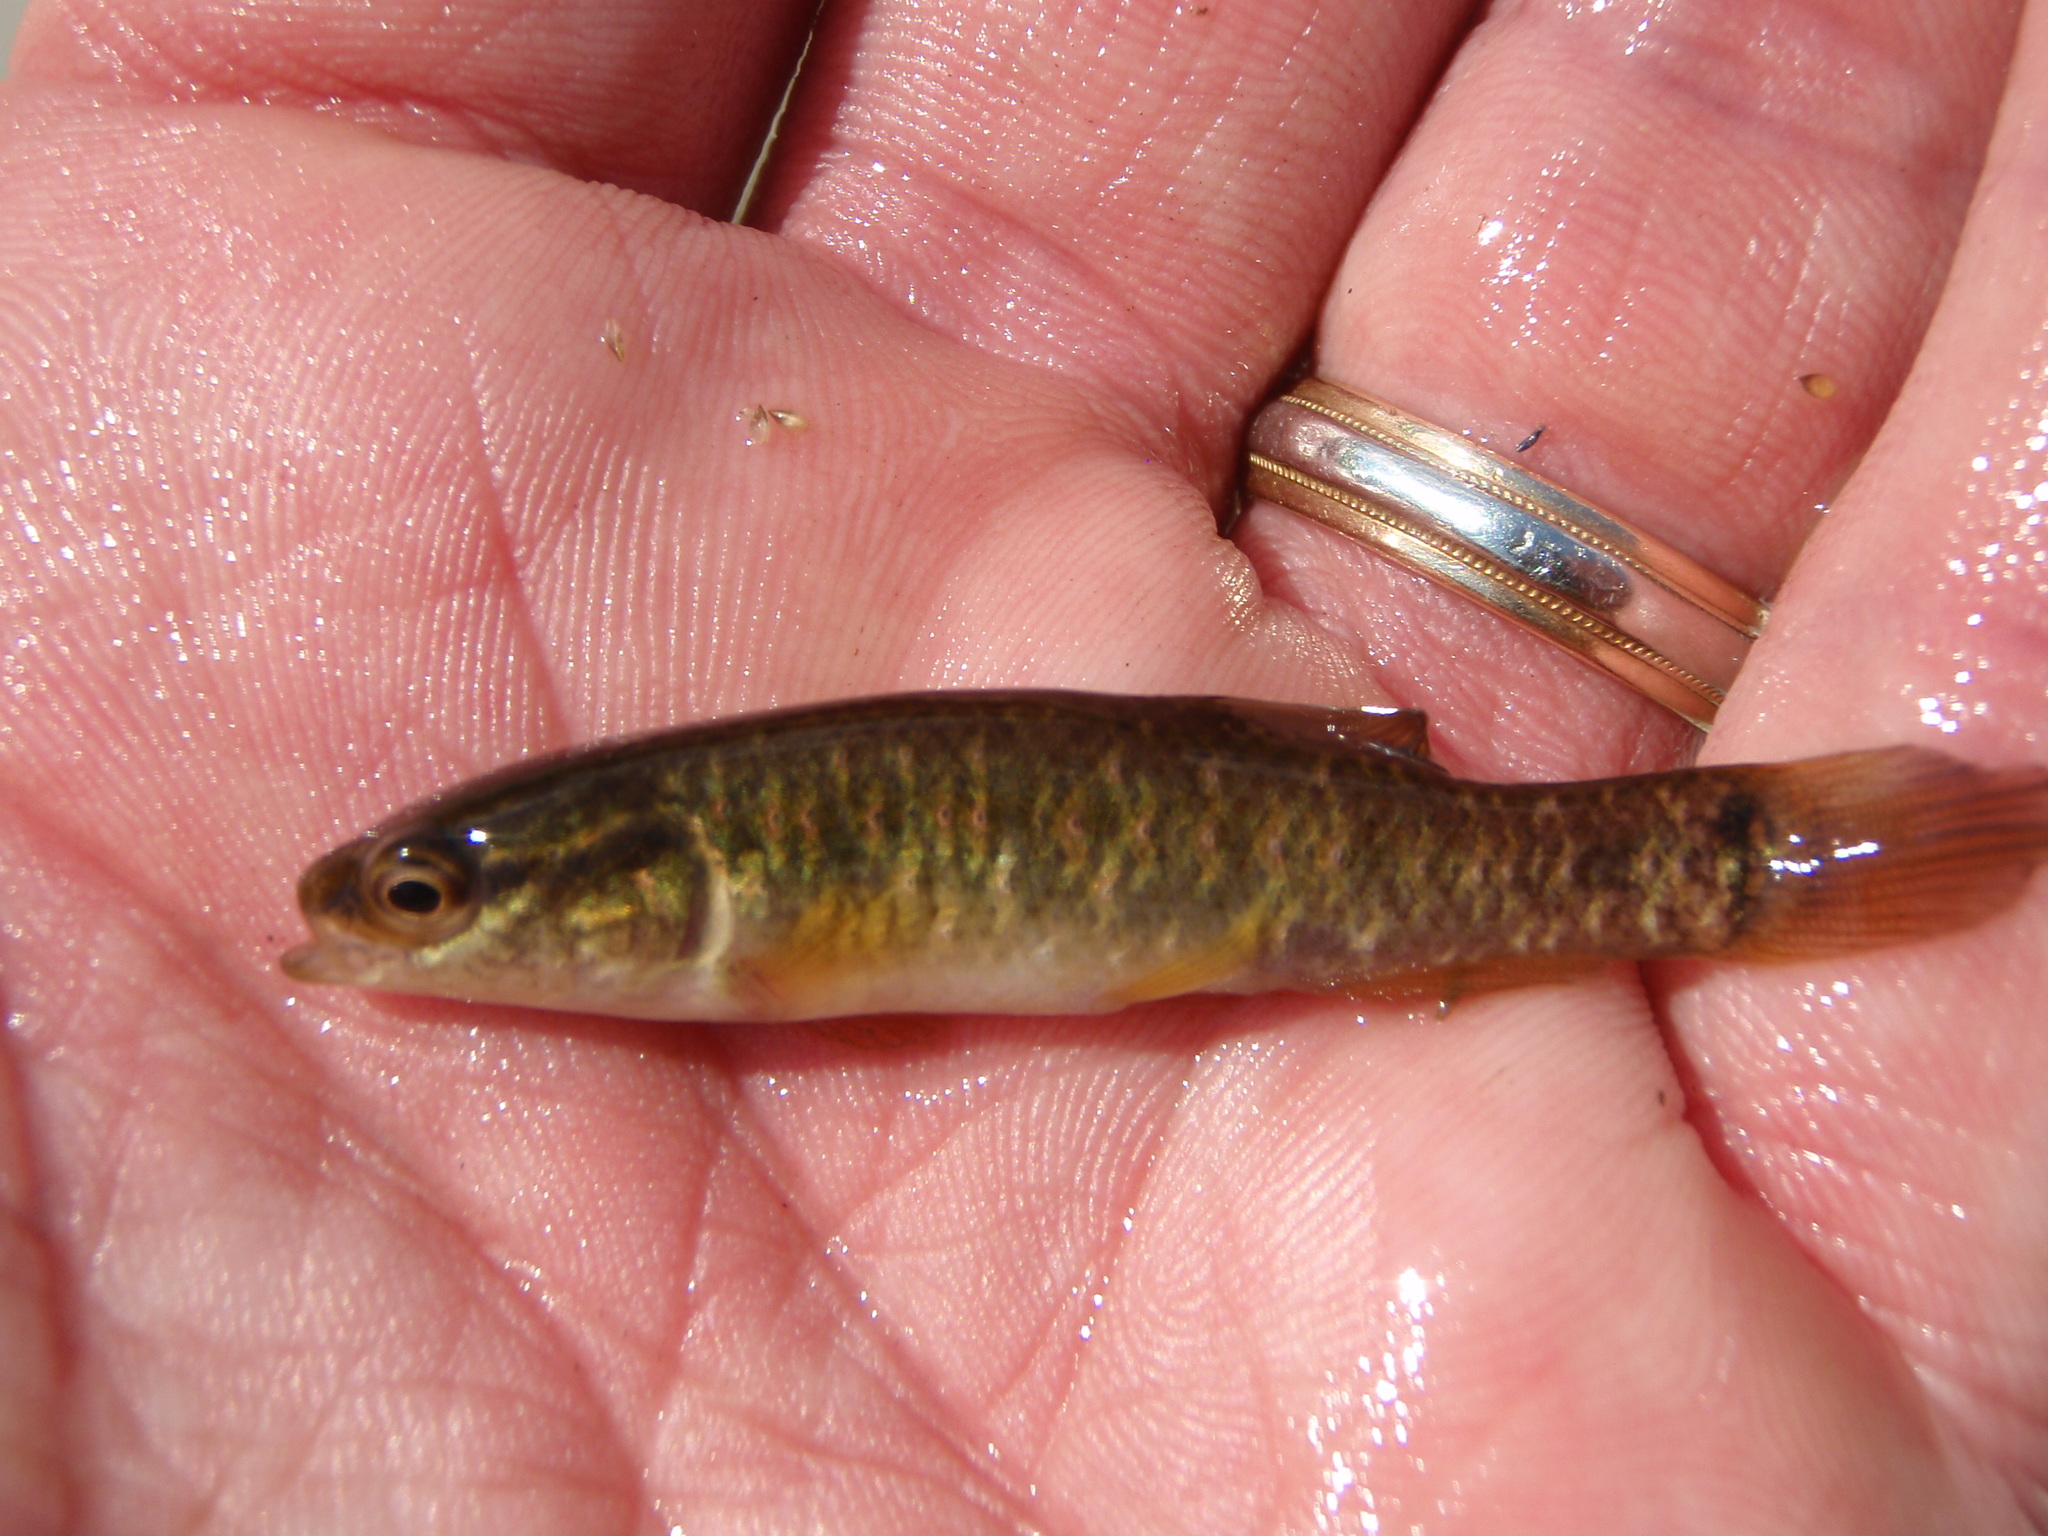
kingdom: Animalia
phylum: Chordata
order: Esociformes
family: Umbridae
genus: Umbra
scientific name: Umbra limi
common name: Central mudminnow
